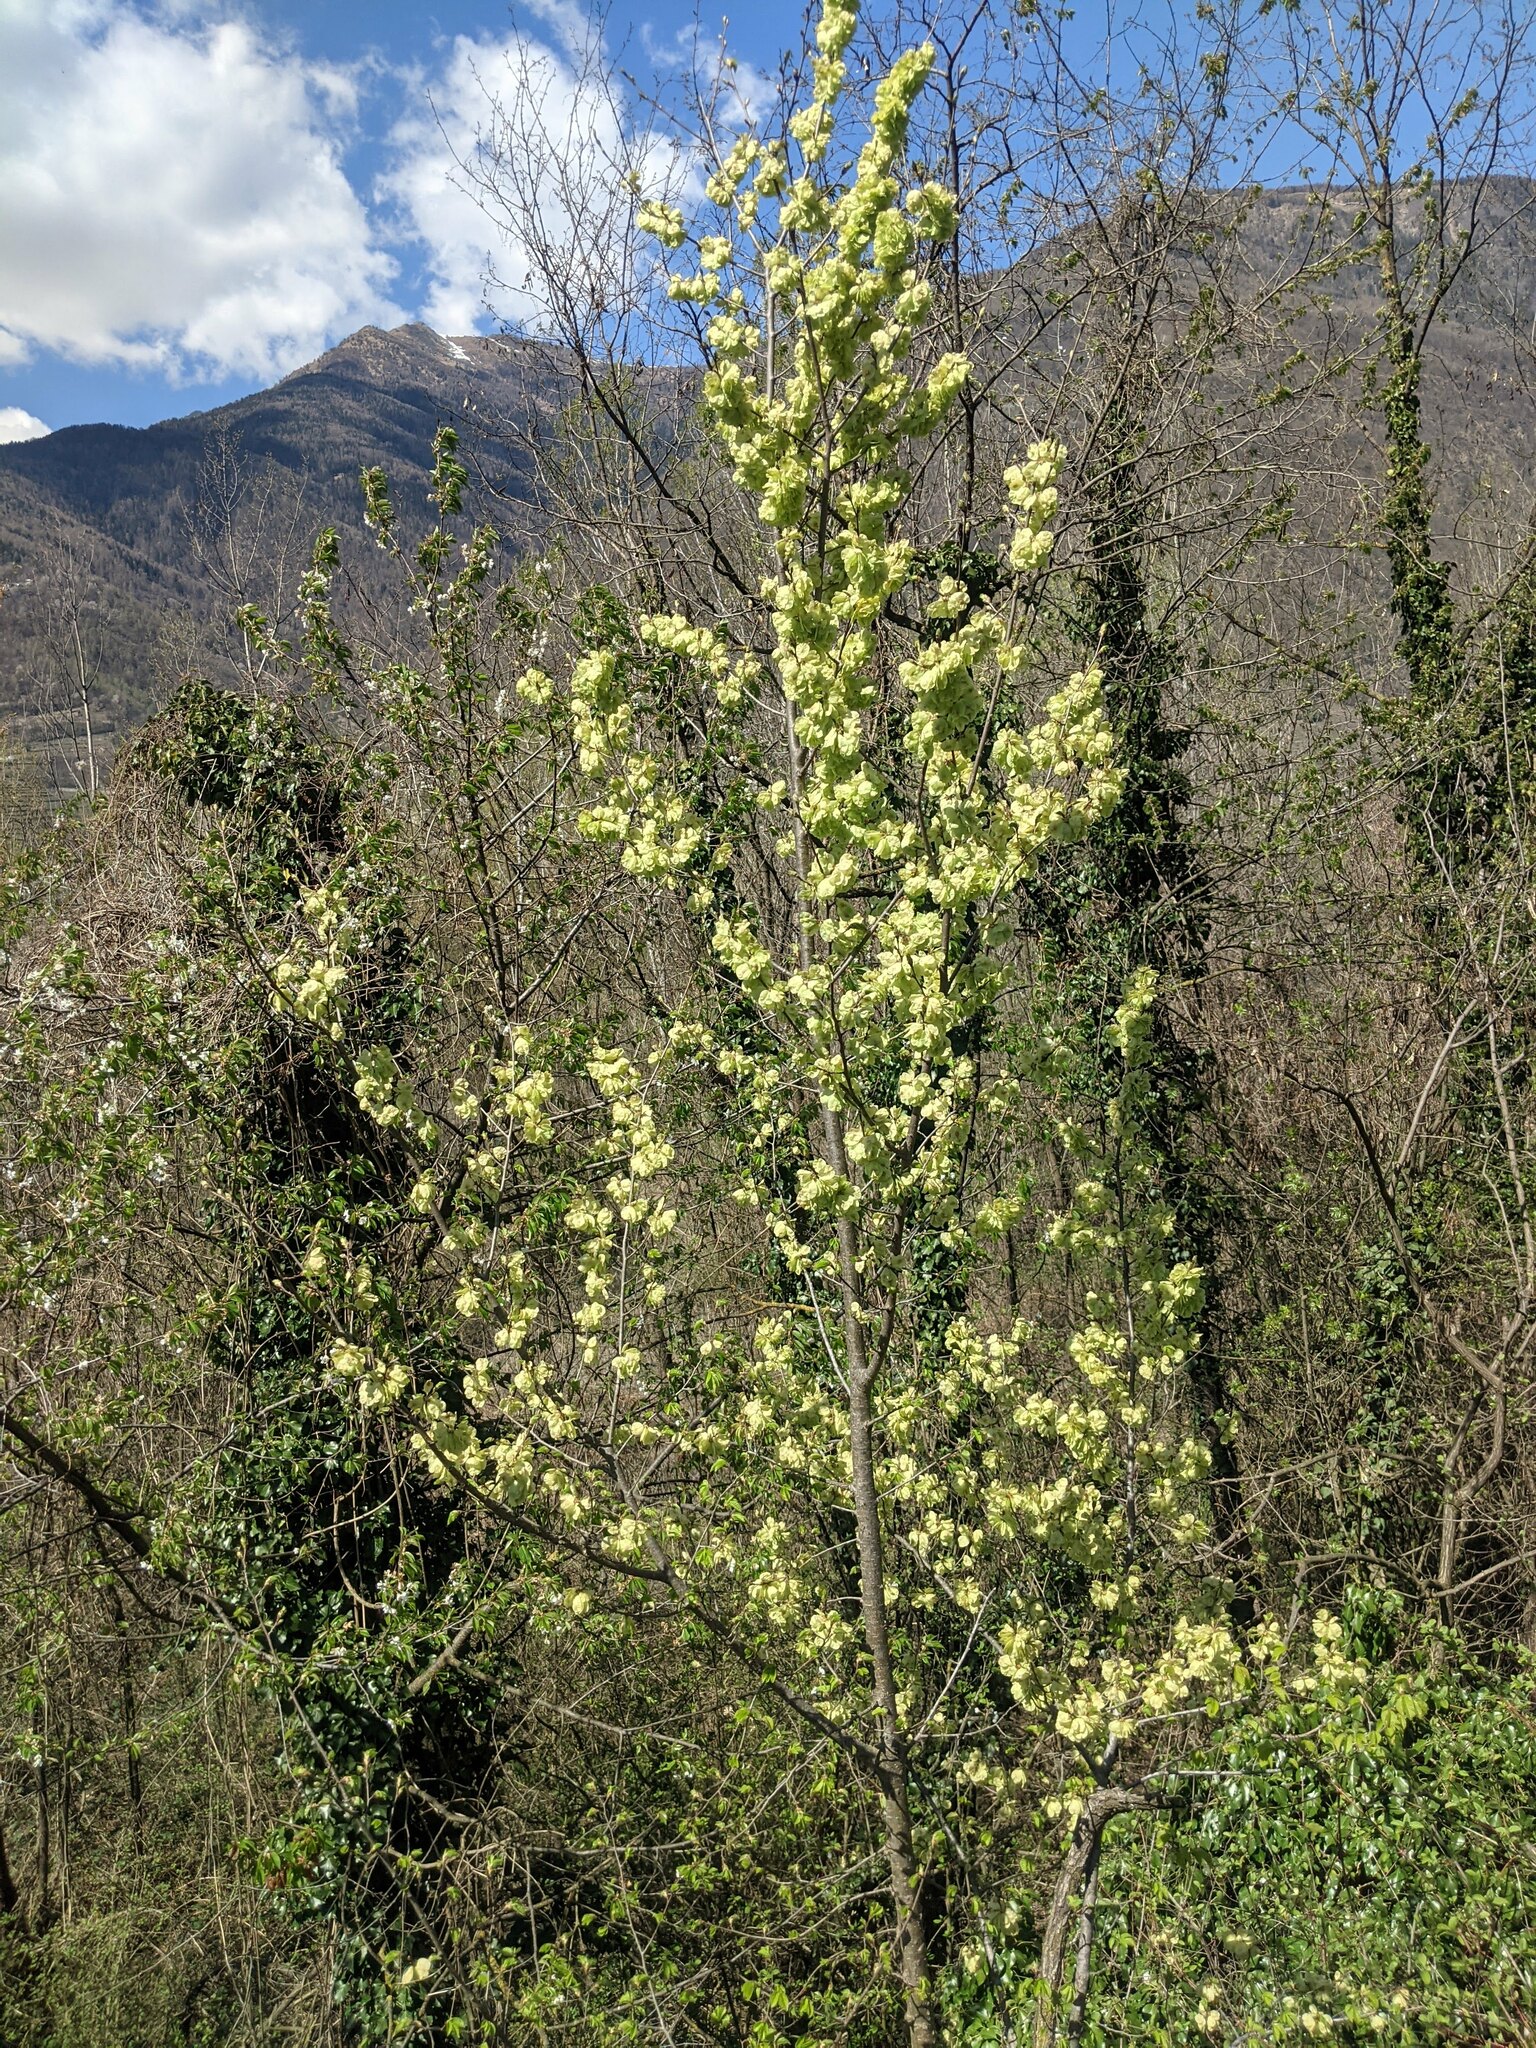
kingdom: Plantae
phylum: Tracheophyta
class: Magnoliopsida
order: Rosales
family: Ulmaceae
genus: Ulmus
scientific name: Ulmus minor
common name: Small-leaved elm
